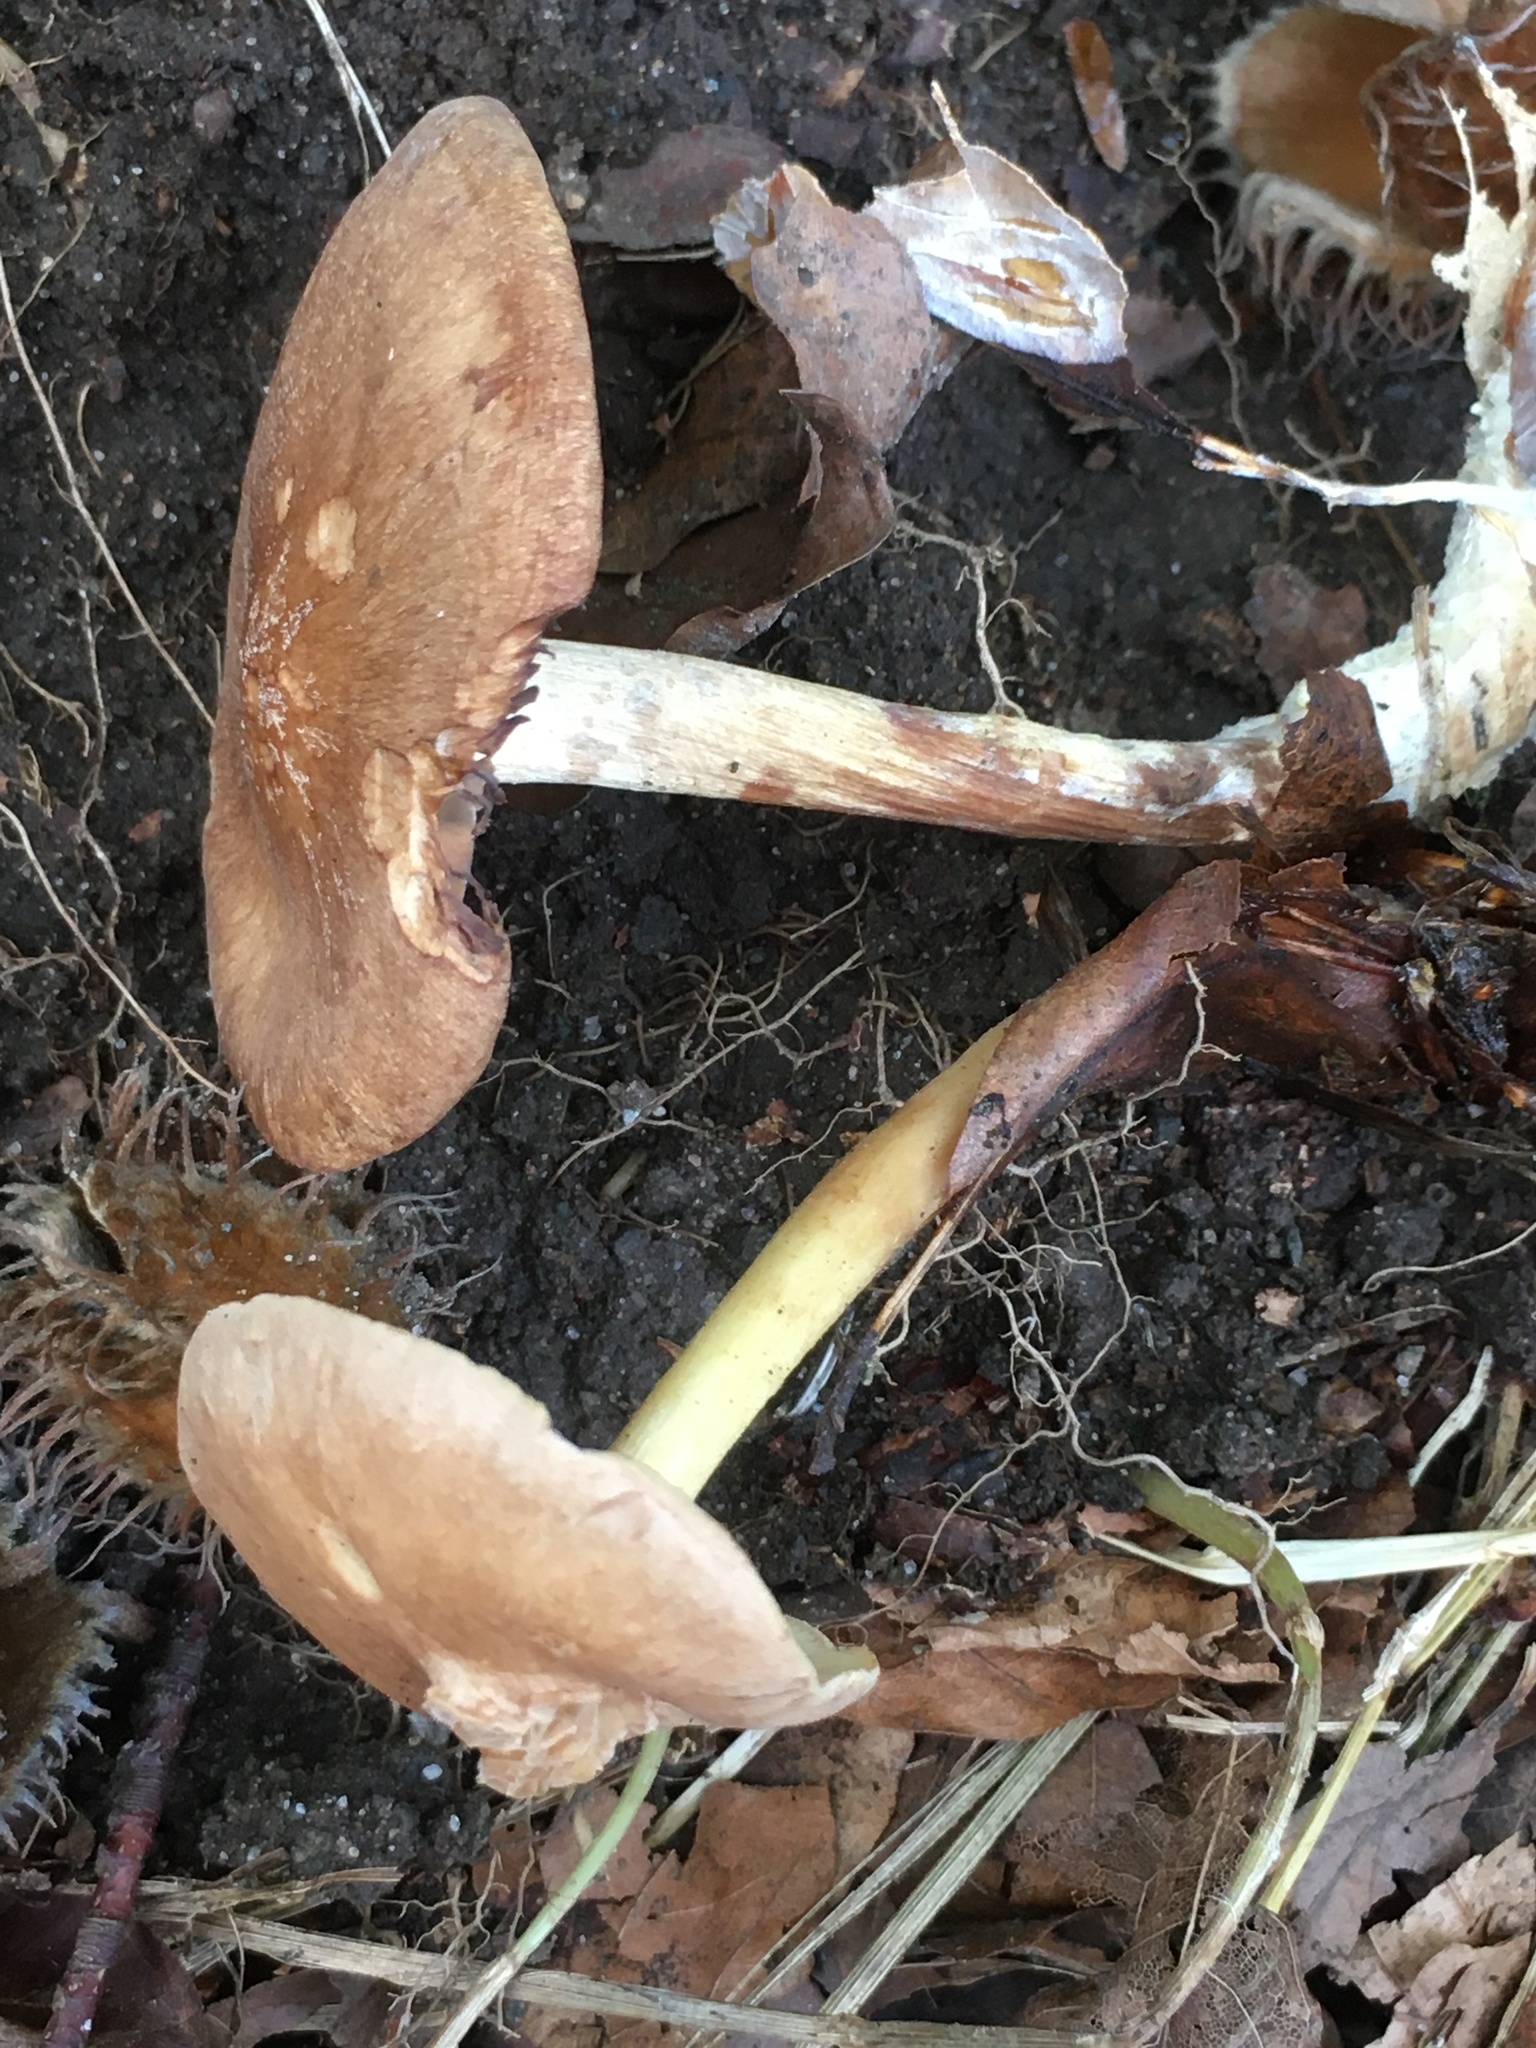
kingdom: Fungi
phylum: Basidiomycota
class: Agaricomycetes
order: Agaricales
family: Omphalotaceae
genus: Collybiopsis
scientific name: Collybiopsis peronata
